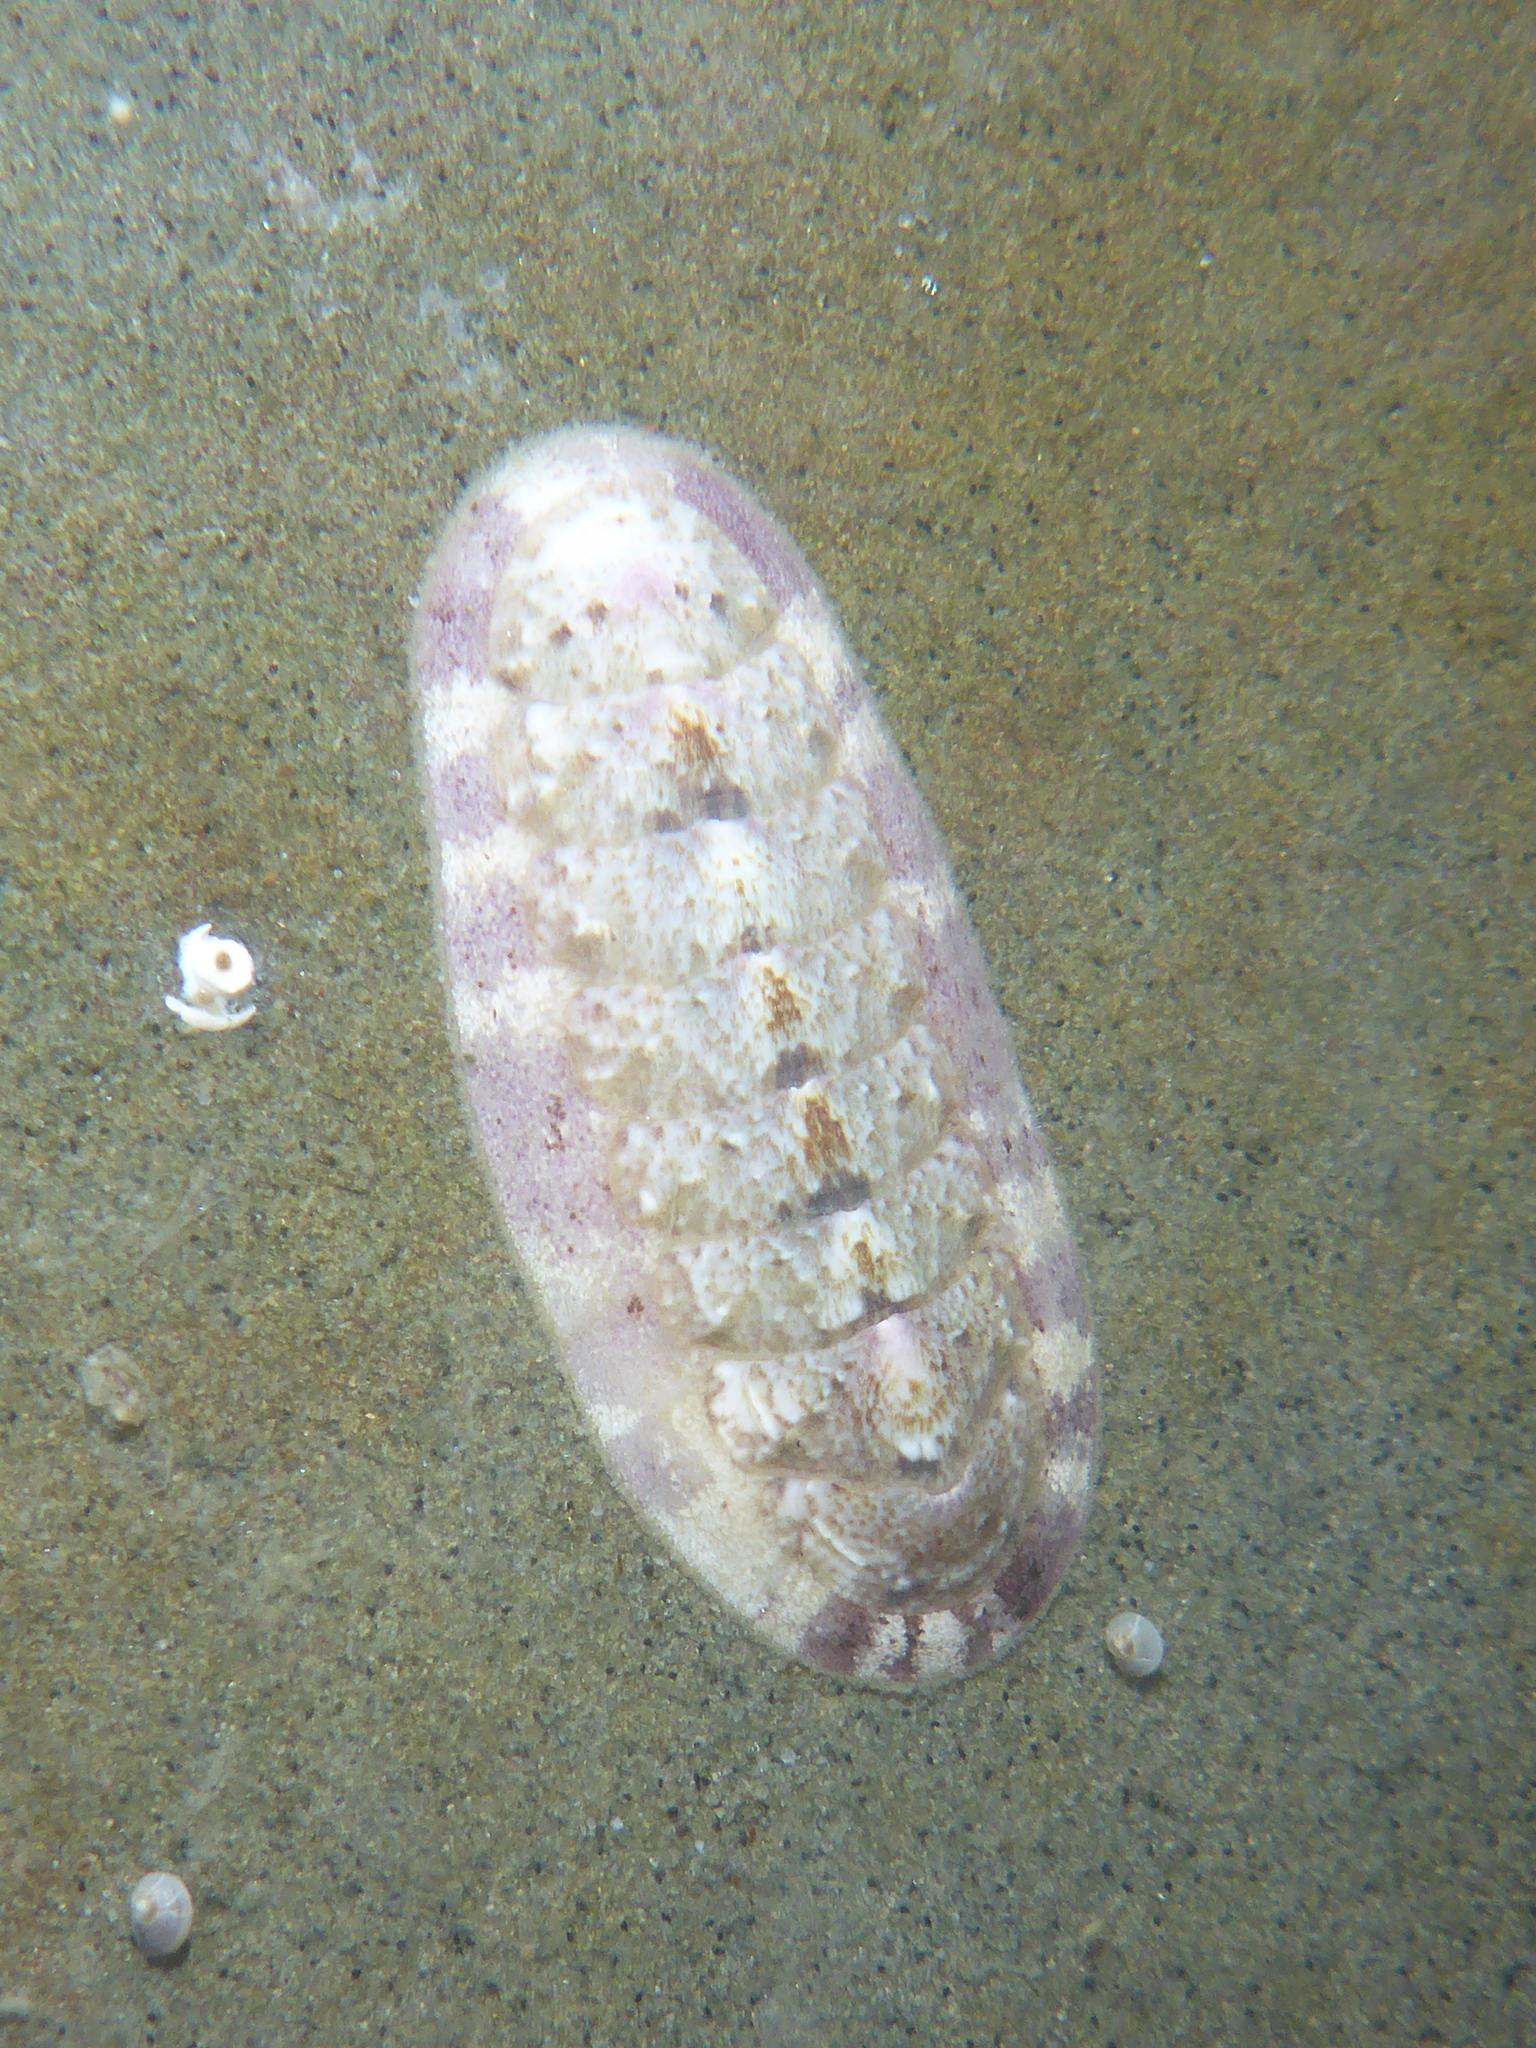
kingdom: Animalia
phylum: Mollusca
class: Polyplacophora
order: Chitonida
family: Ischnochitonidae
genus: Stenoplax
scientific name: Stenoplax heathiana
